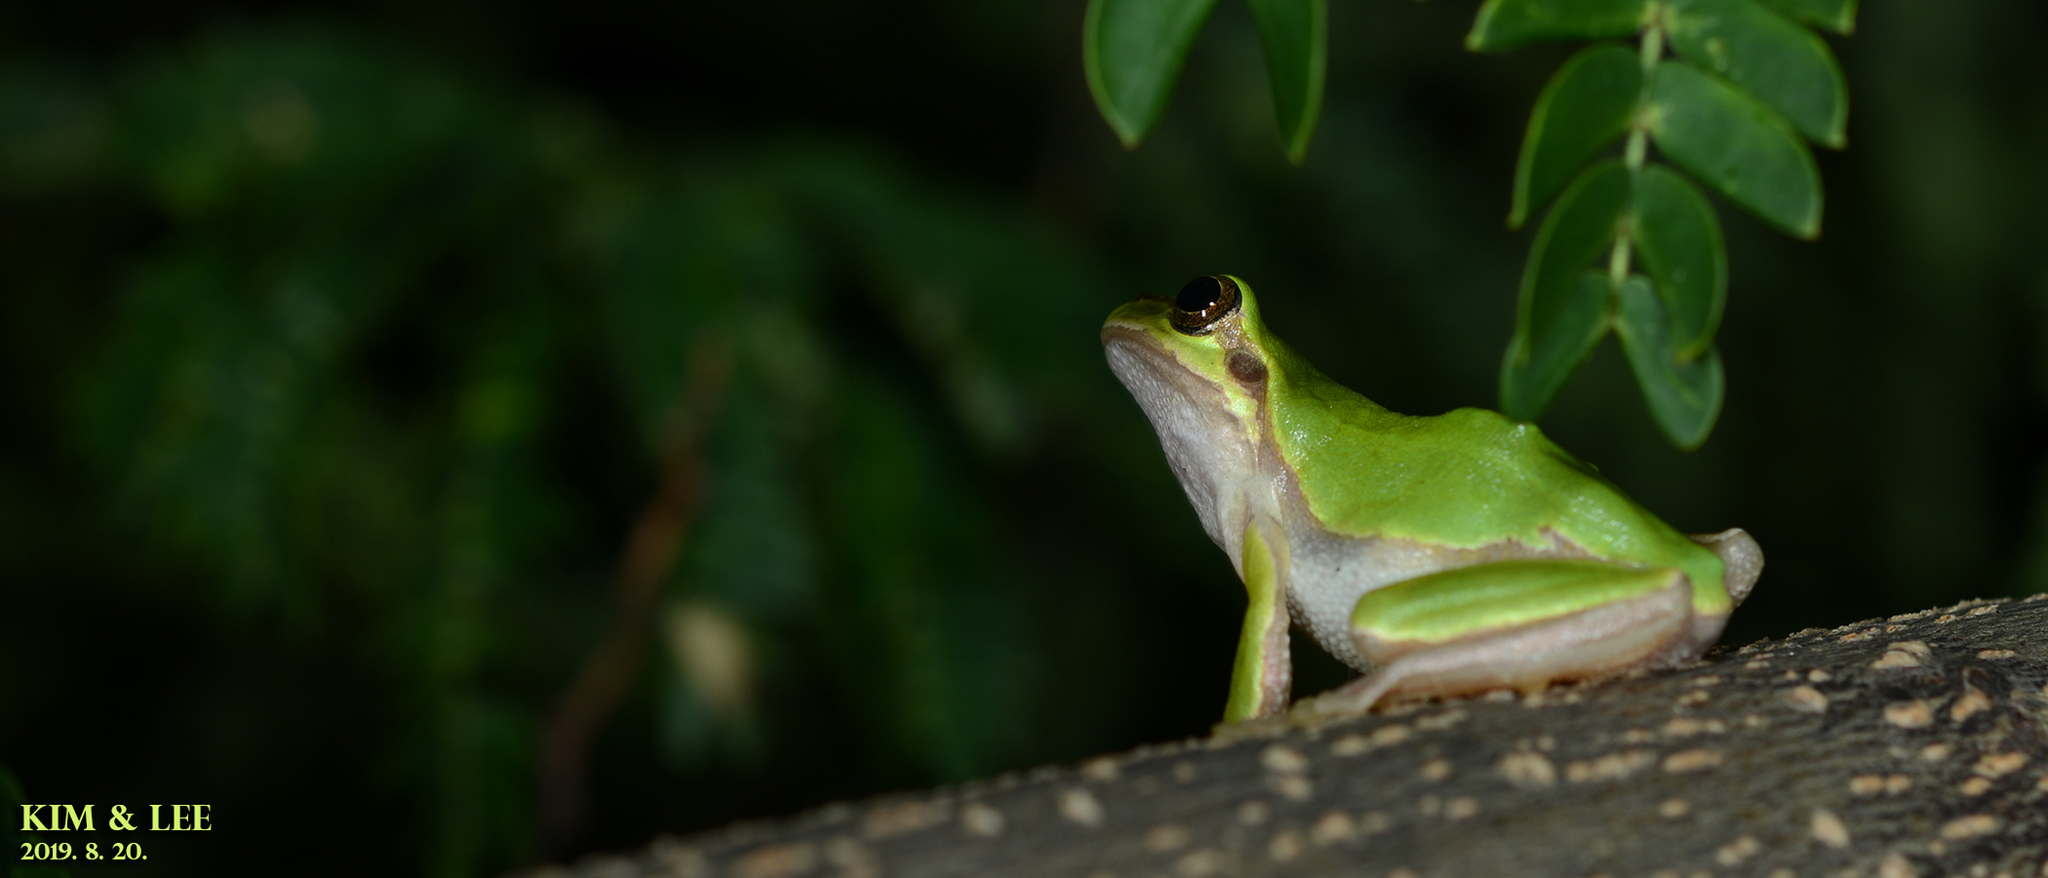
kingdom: Animalia
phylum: Chordata
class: Amphibia
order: Anura
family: Hylidae
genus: Dryophytes
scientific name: Dryophytes japonicus
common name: Japanese treefrog
